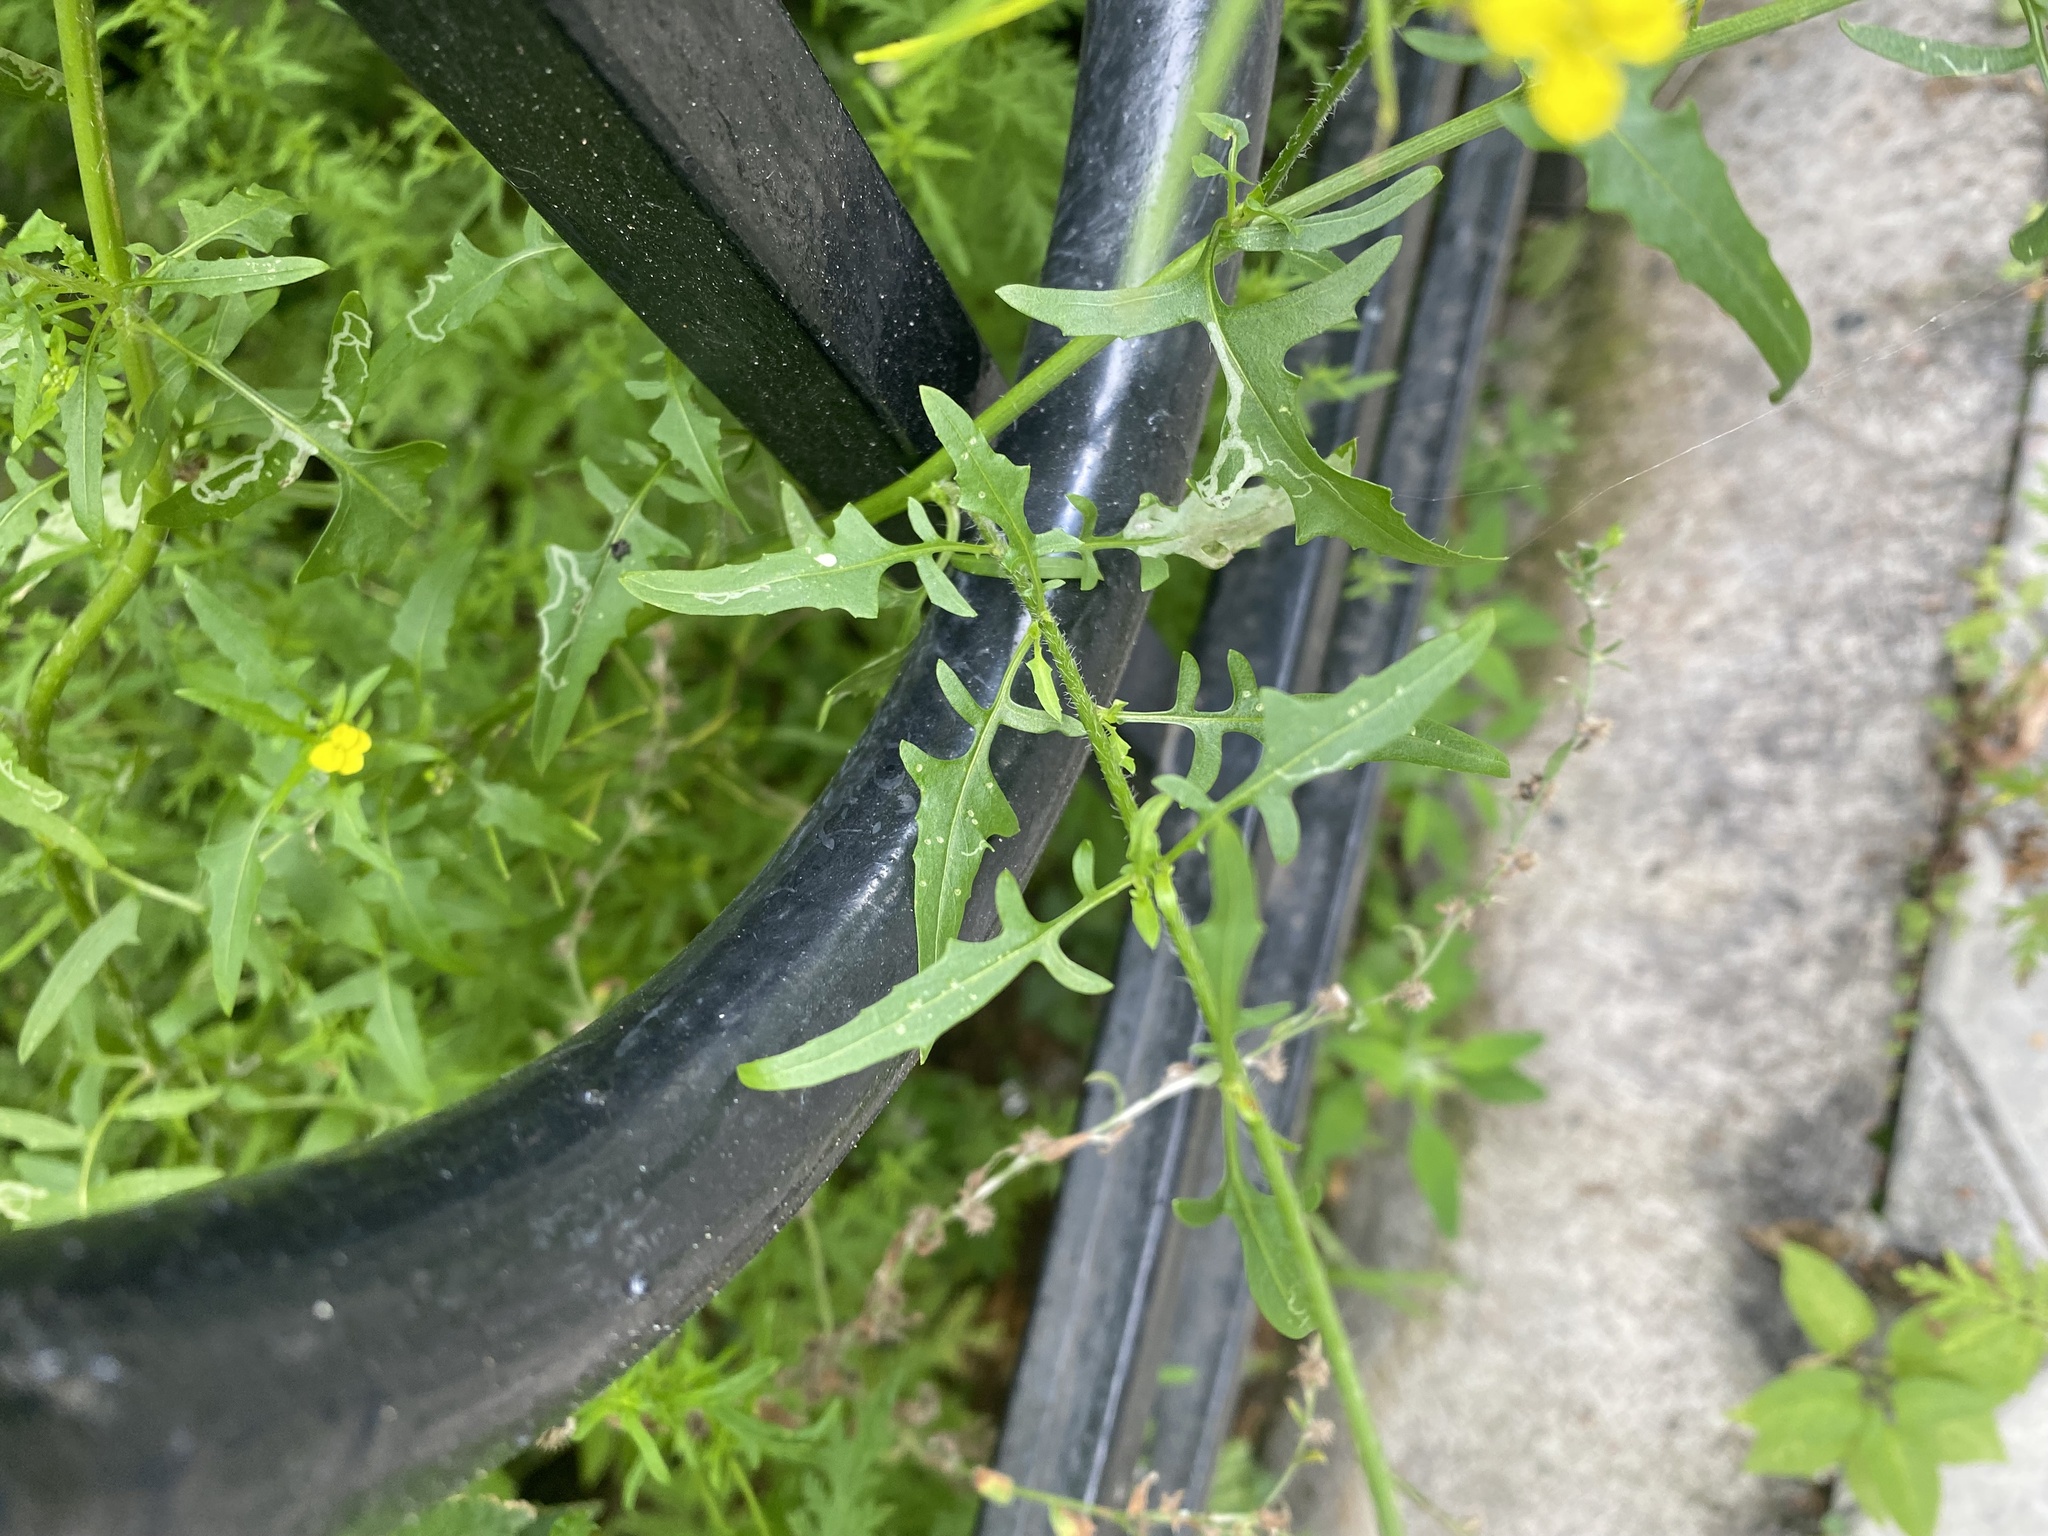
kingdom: Plantae
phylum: Tracheophyta
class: Magnoliopsida
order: Brassicales
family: Brassicaceae
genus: Sisymbrium
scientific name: Sisymbrium loeselii
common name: False london-rocket
